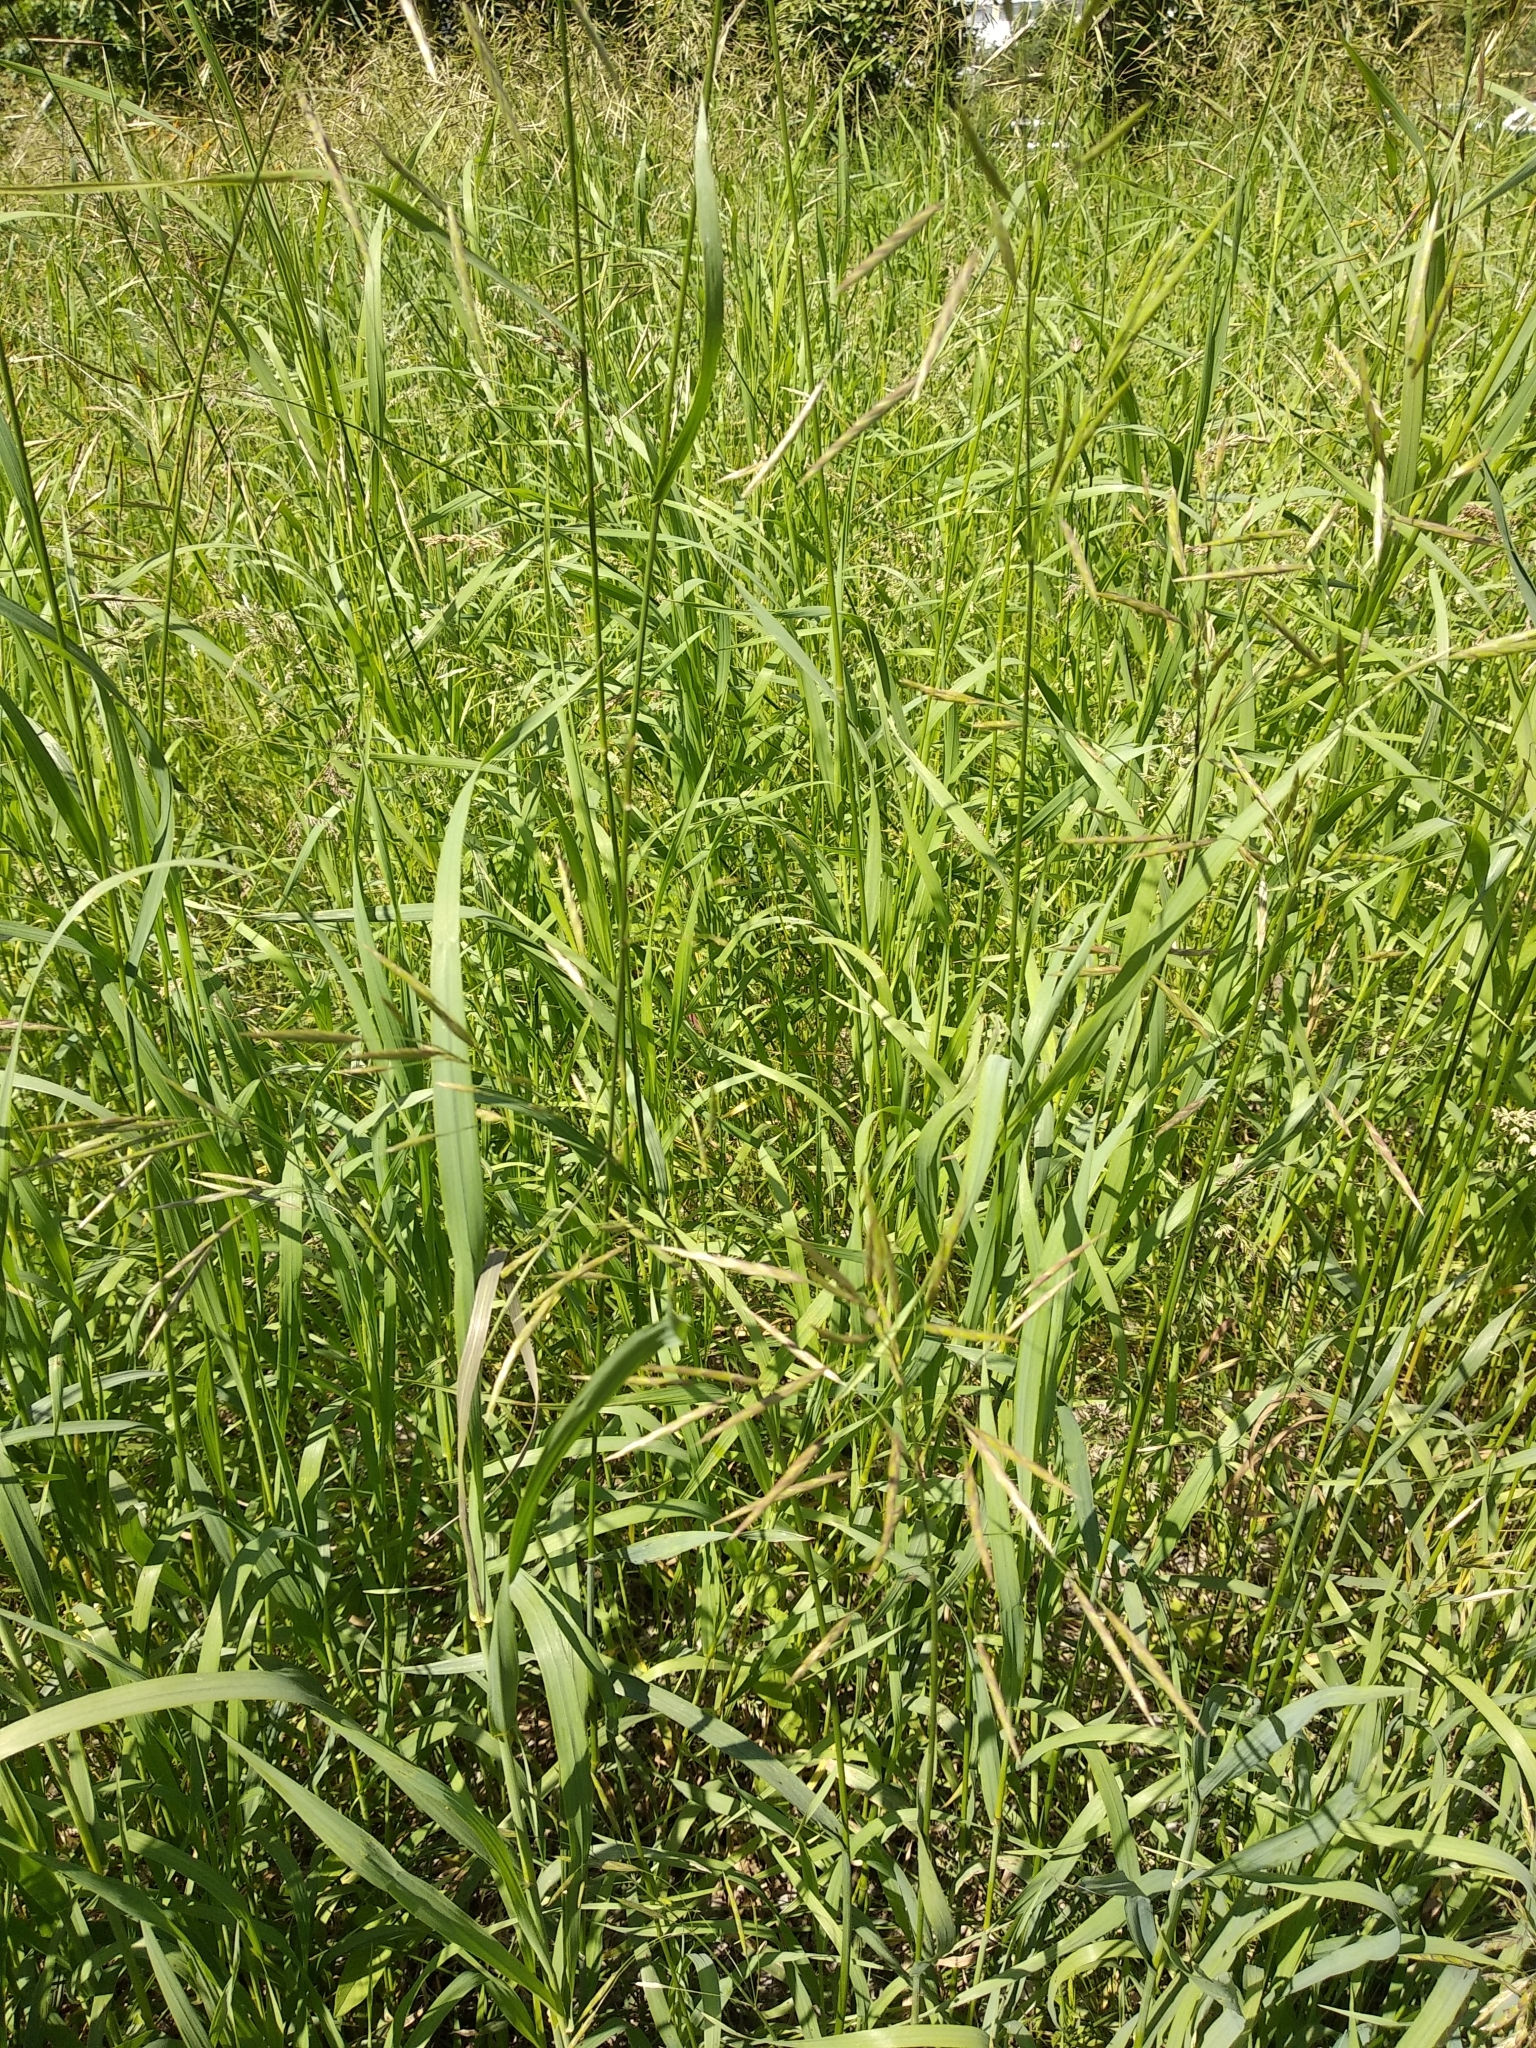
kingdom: Plantae
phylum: Tracheophyta
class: Liliopsida
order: Poales
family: Poaceae
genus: Bromus
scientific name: Bromus inermis
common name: Smooth brome
